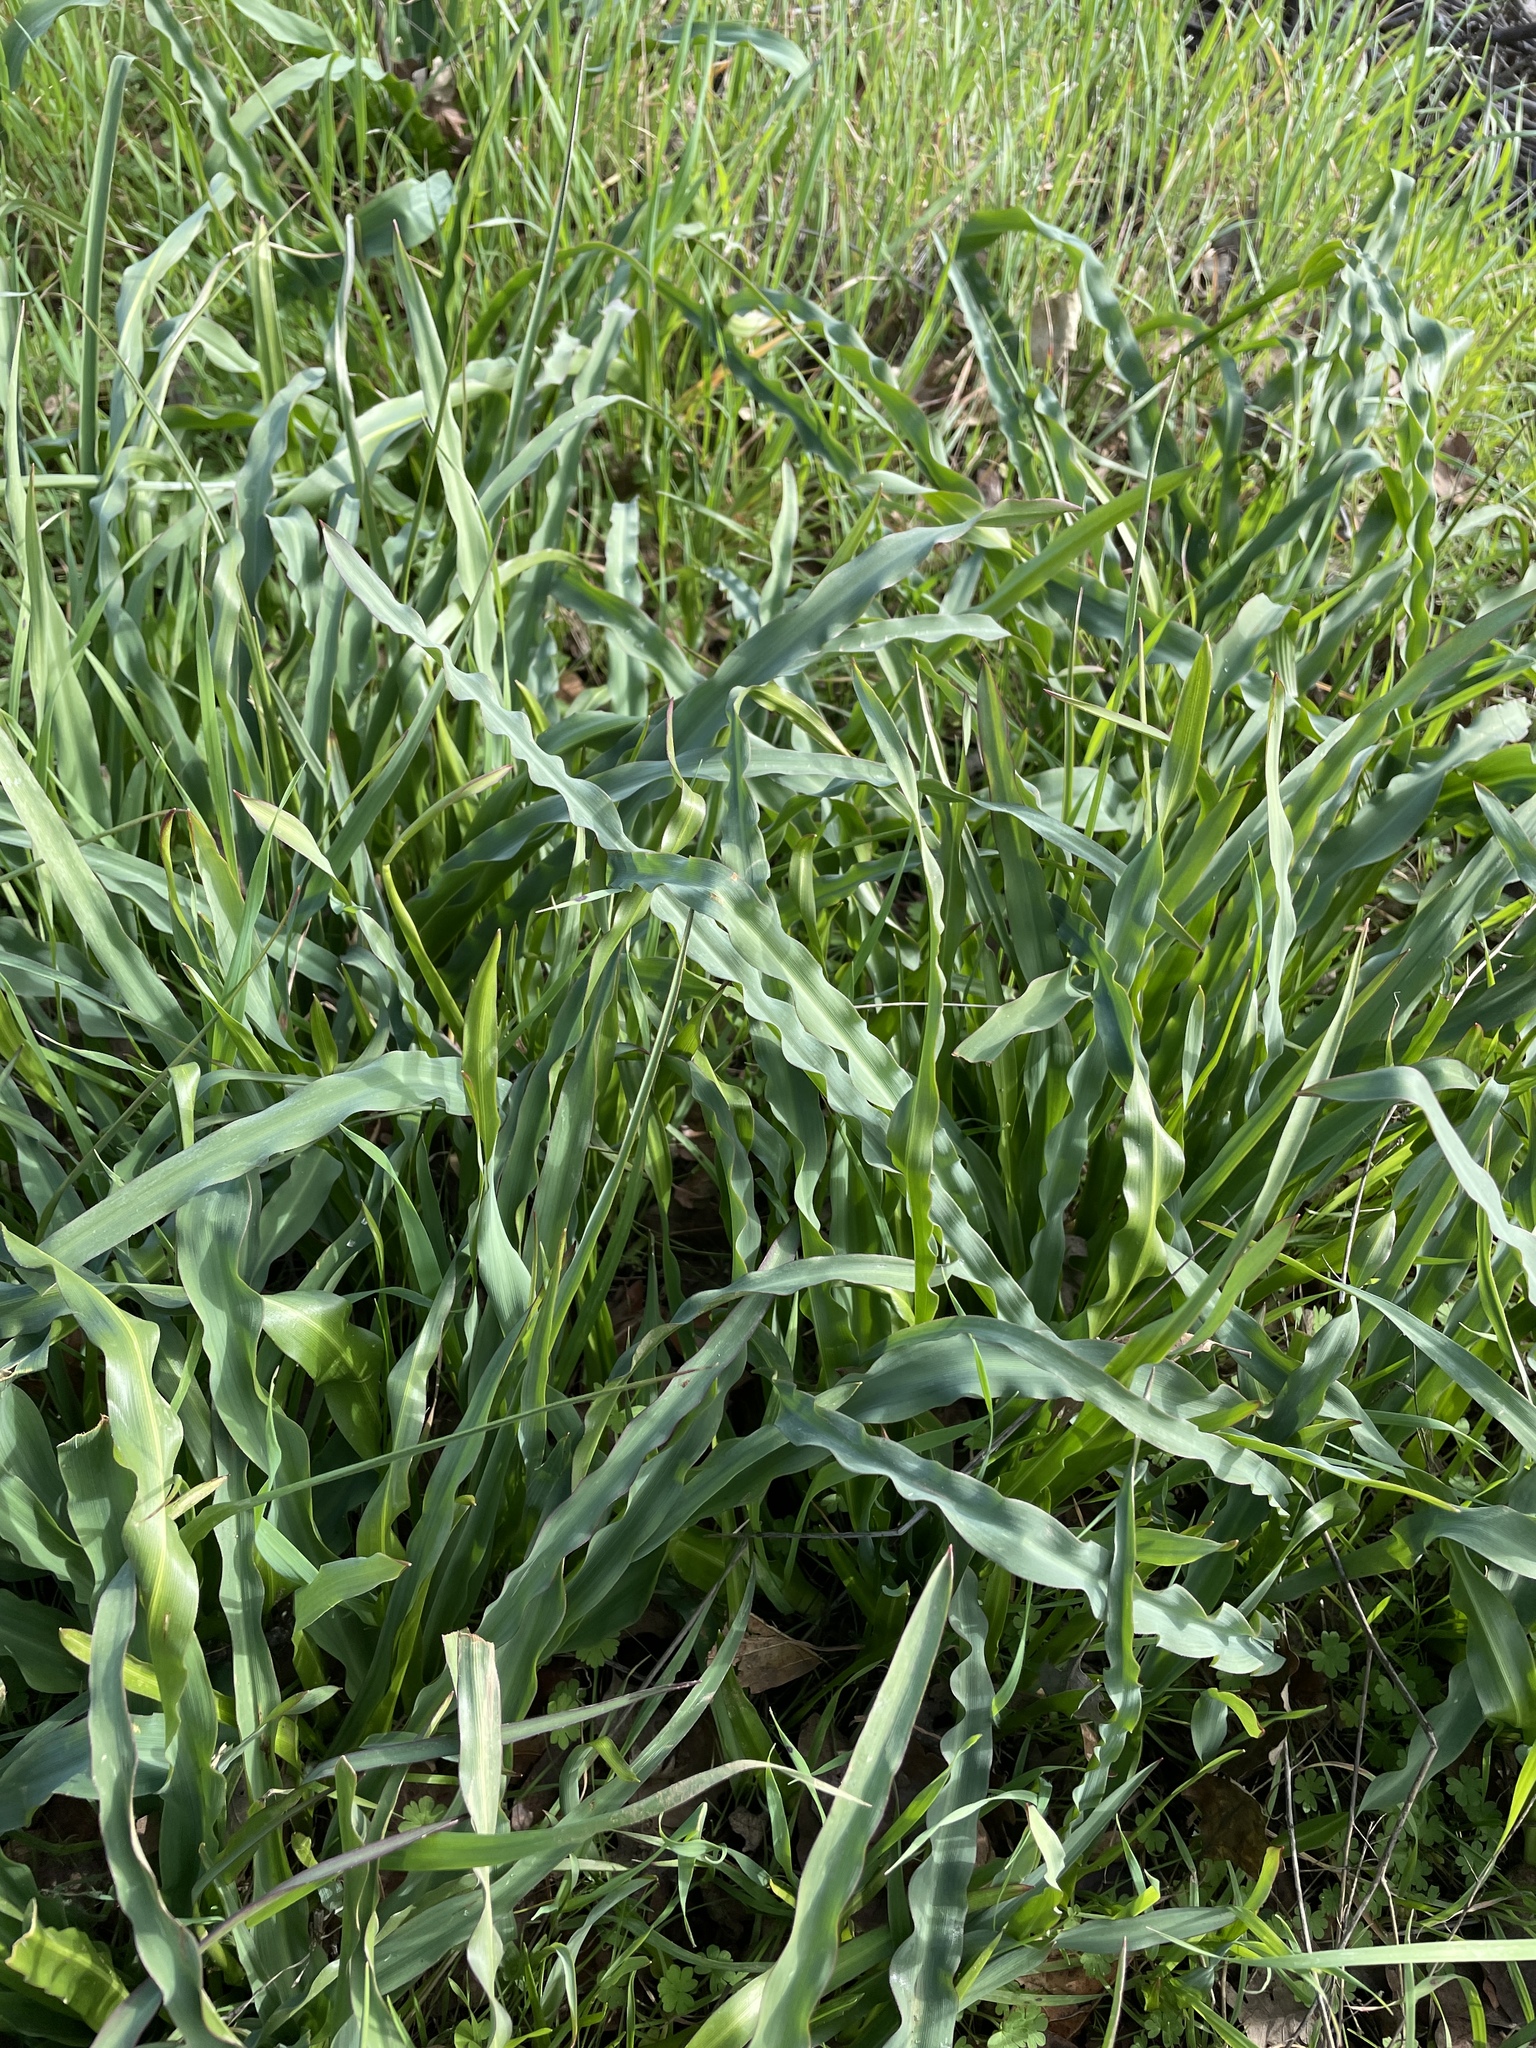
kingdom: Plantae
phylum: Tracheophyta
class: Liliopsida
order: Asparagales
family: Asparagaceae
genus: Chlorogalum
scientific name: Chlorogalum pomeridianum
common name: Amole
